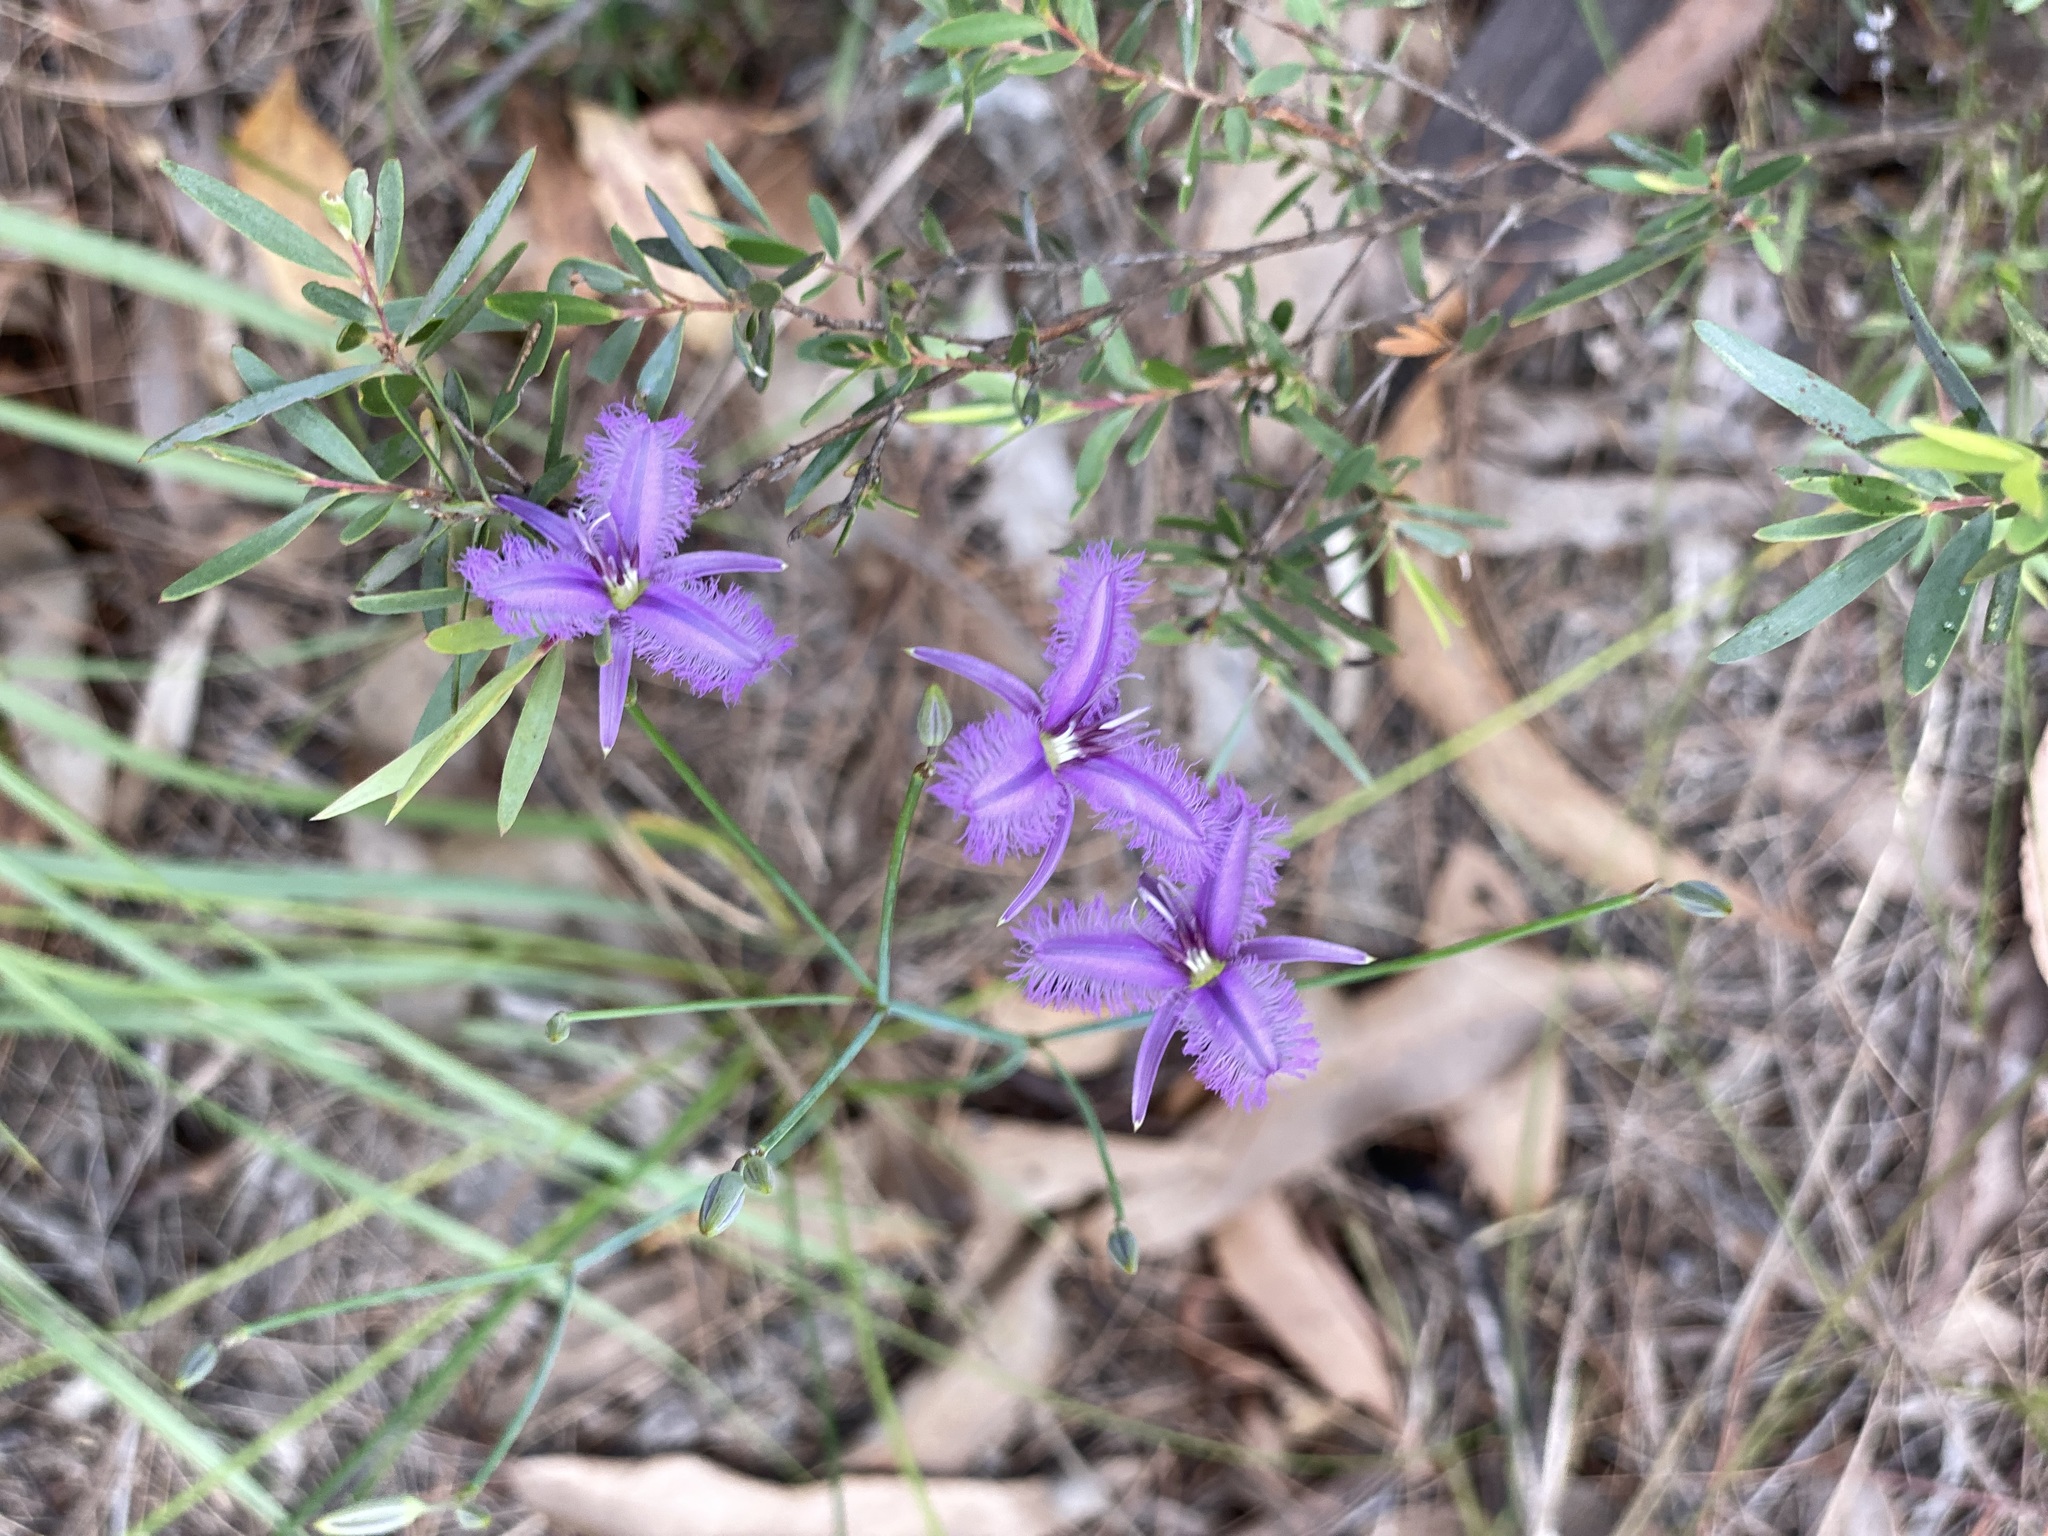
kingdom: Plantae
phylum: Tracheophyta
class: Liliopsida
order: Asparagales
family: Asparagaceae
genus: Thysanotus
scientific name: Thysanotus tuberosus
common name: Common fringed-lily
